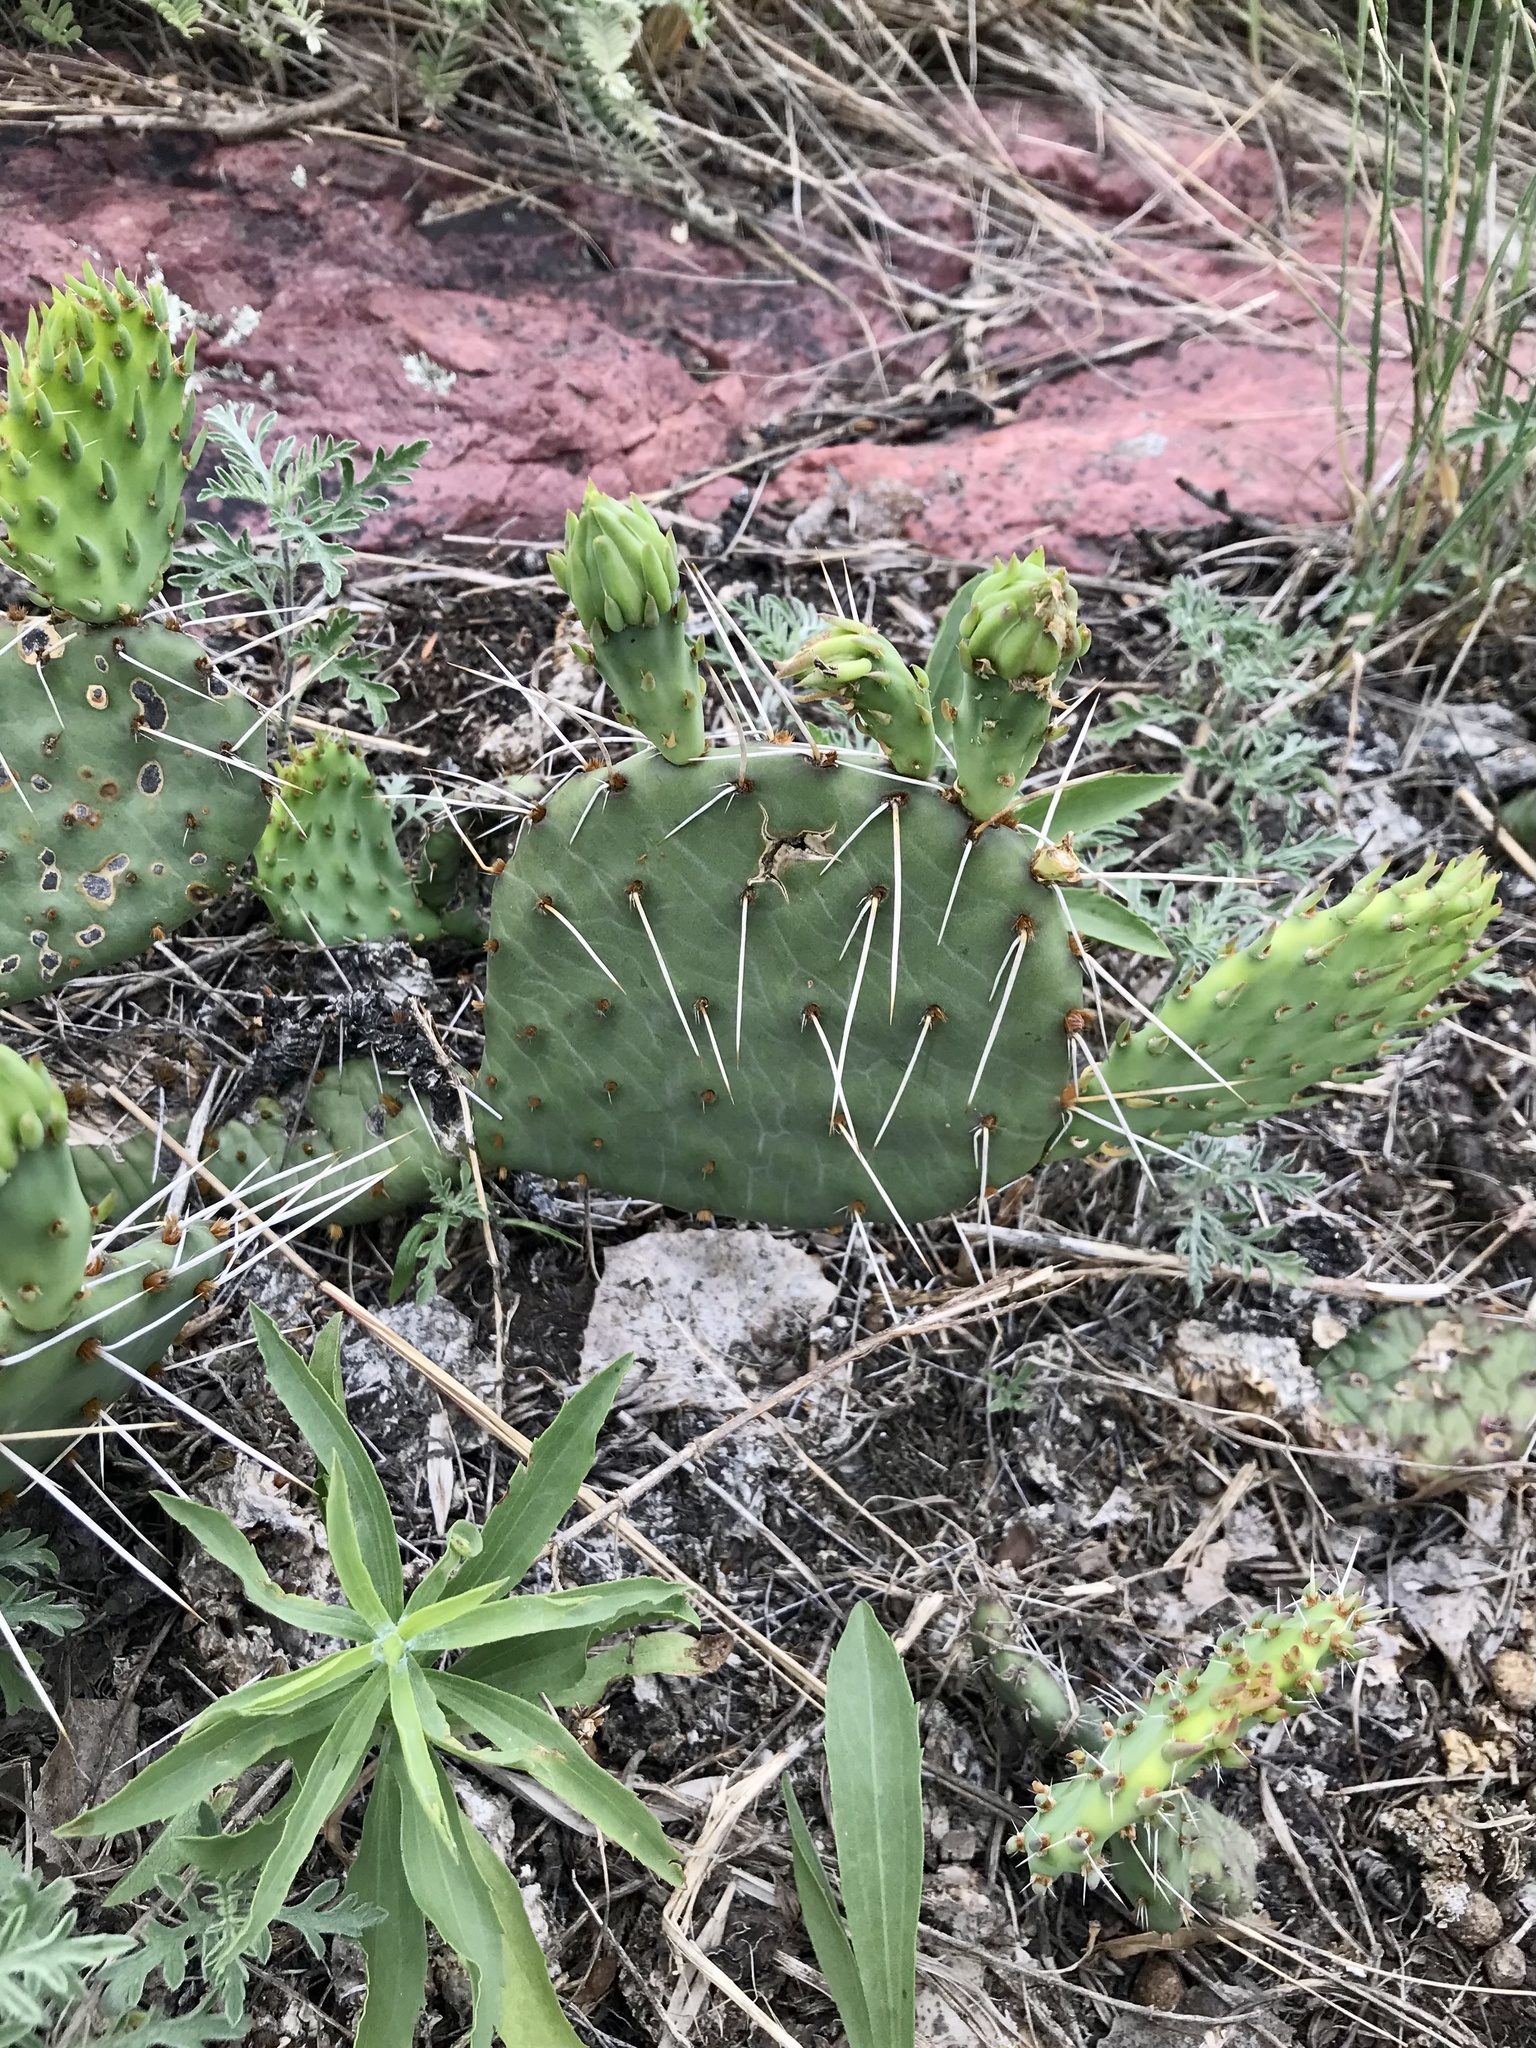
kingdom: Plantae
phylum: Tracheophyta
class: Magnoliopsida
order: Caryophyllales
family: Cactaceae
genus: Opuntia
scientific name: Opuntia macrorhiza
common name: Grassland pricklypear
